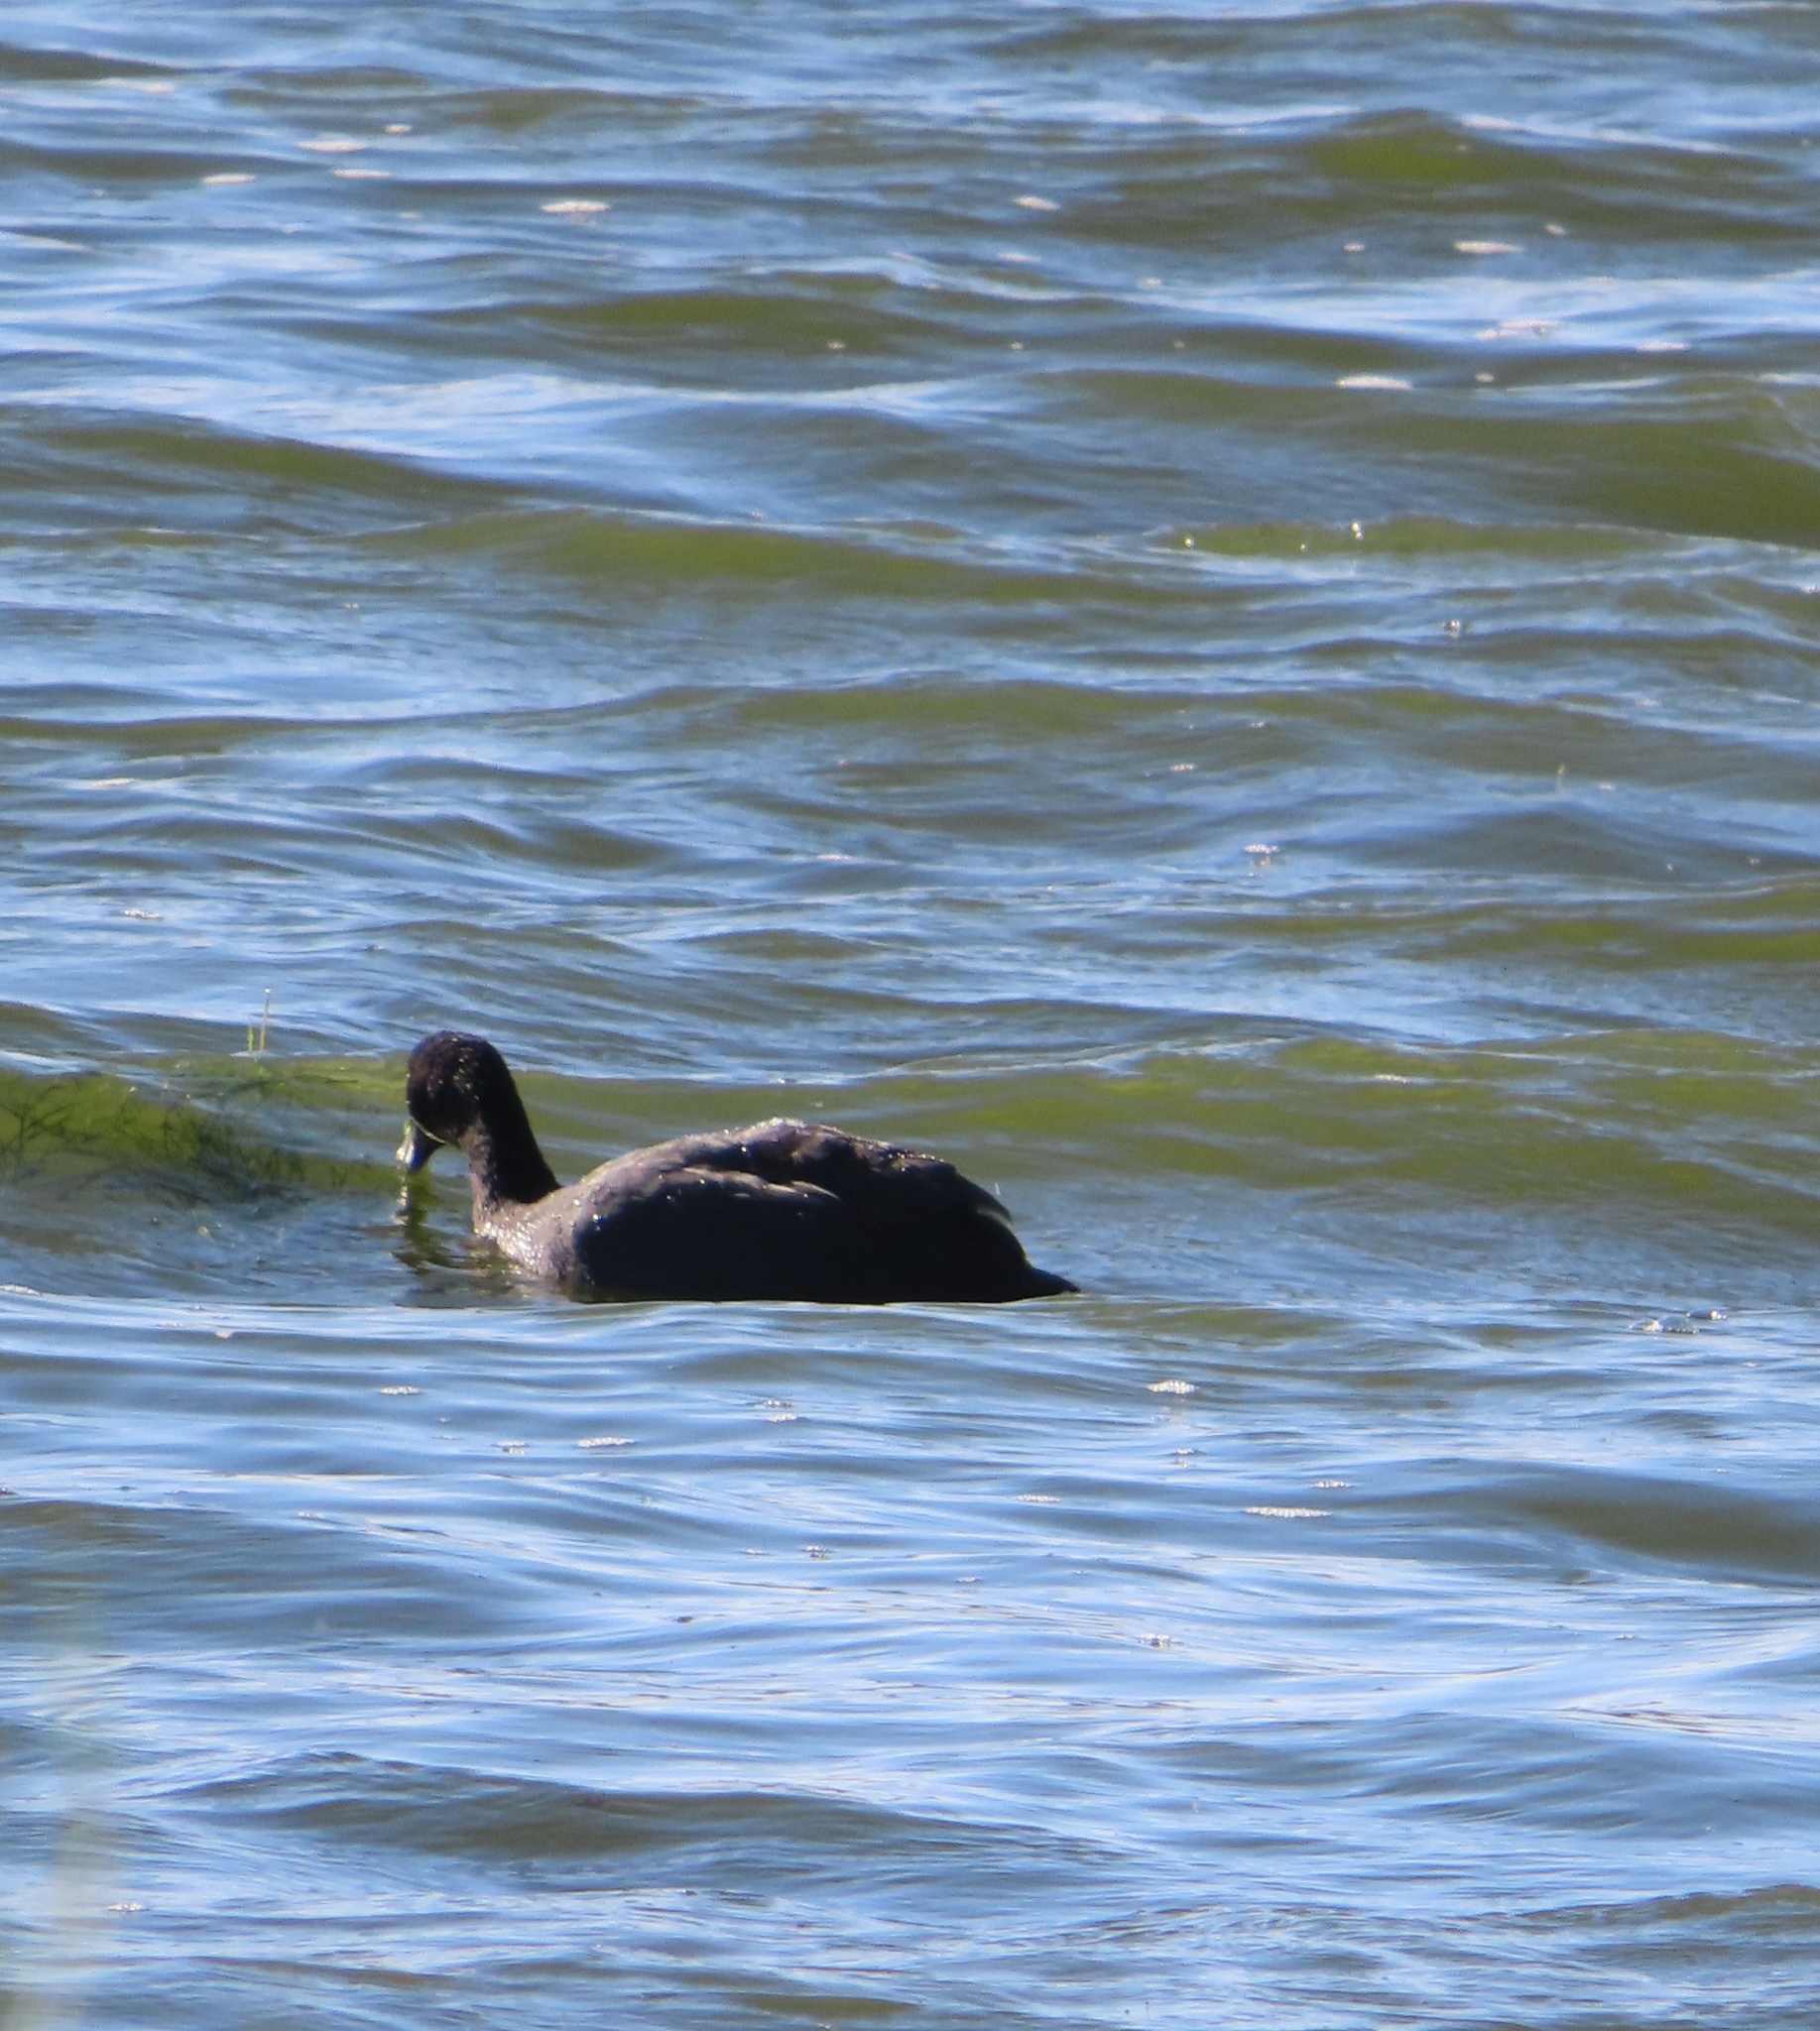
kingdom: Animalia
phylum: Chordata
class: Aves
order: Anseriformes
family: Anatidae
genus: Netta
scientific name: Netta erythrophthalma
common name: Southern pochard
